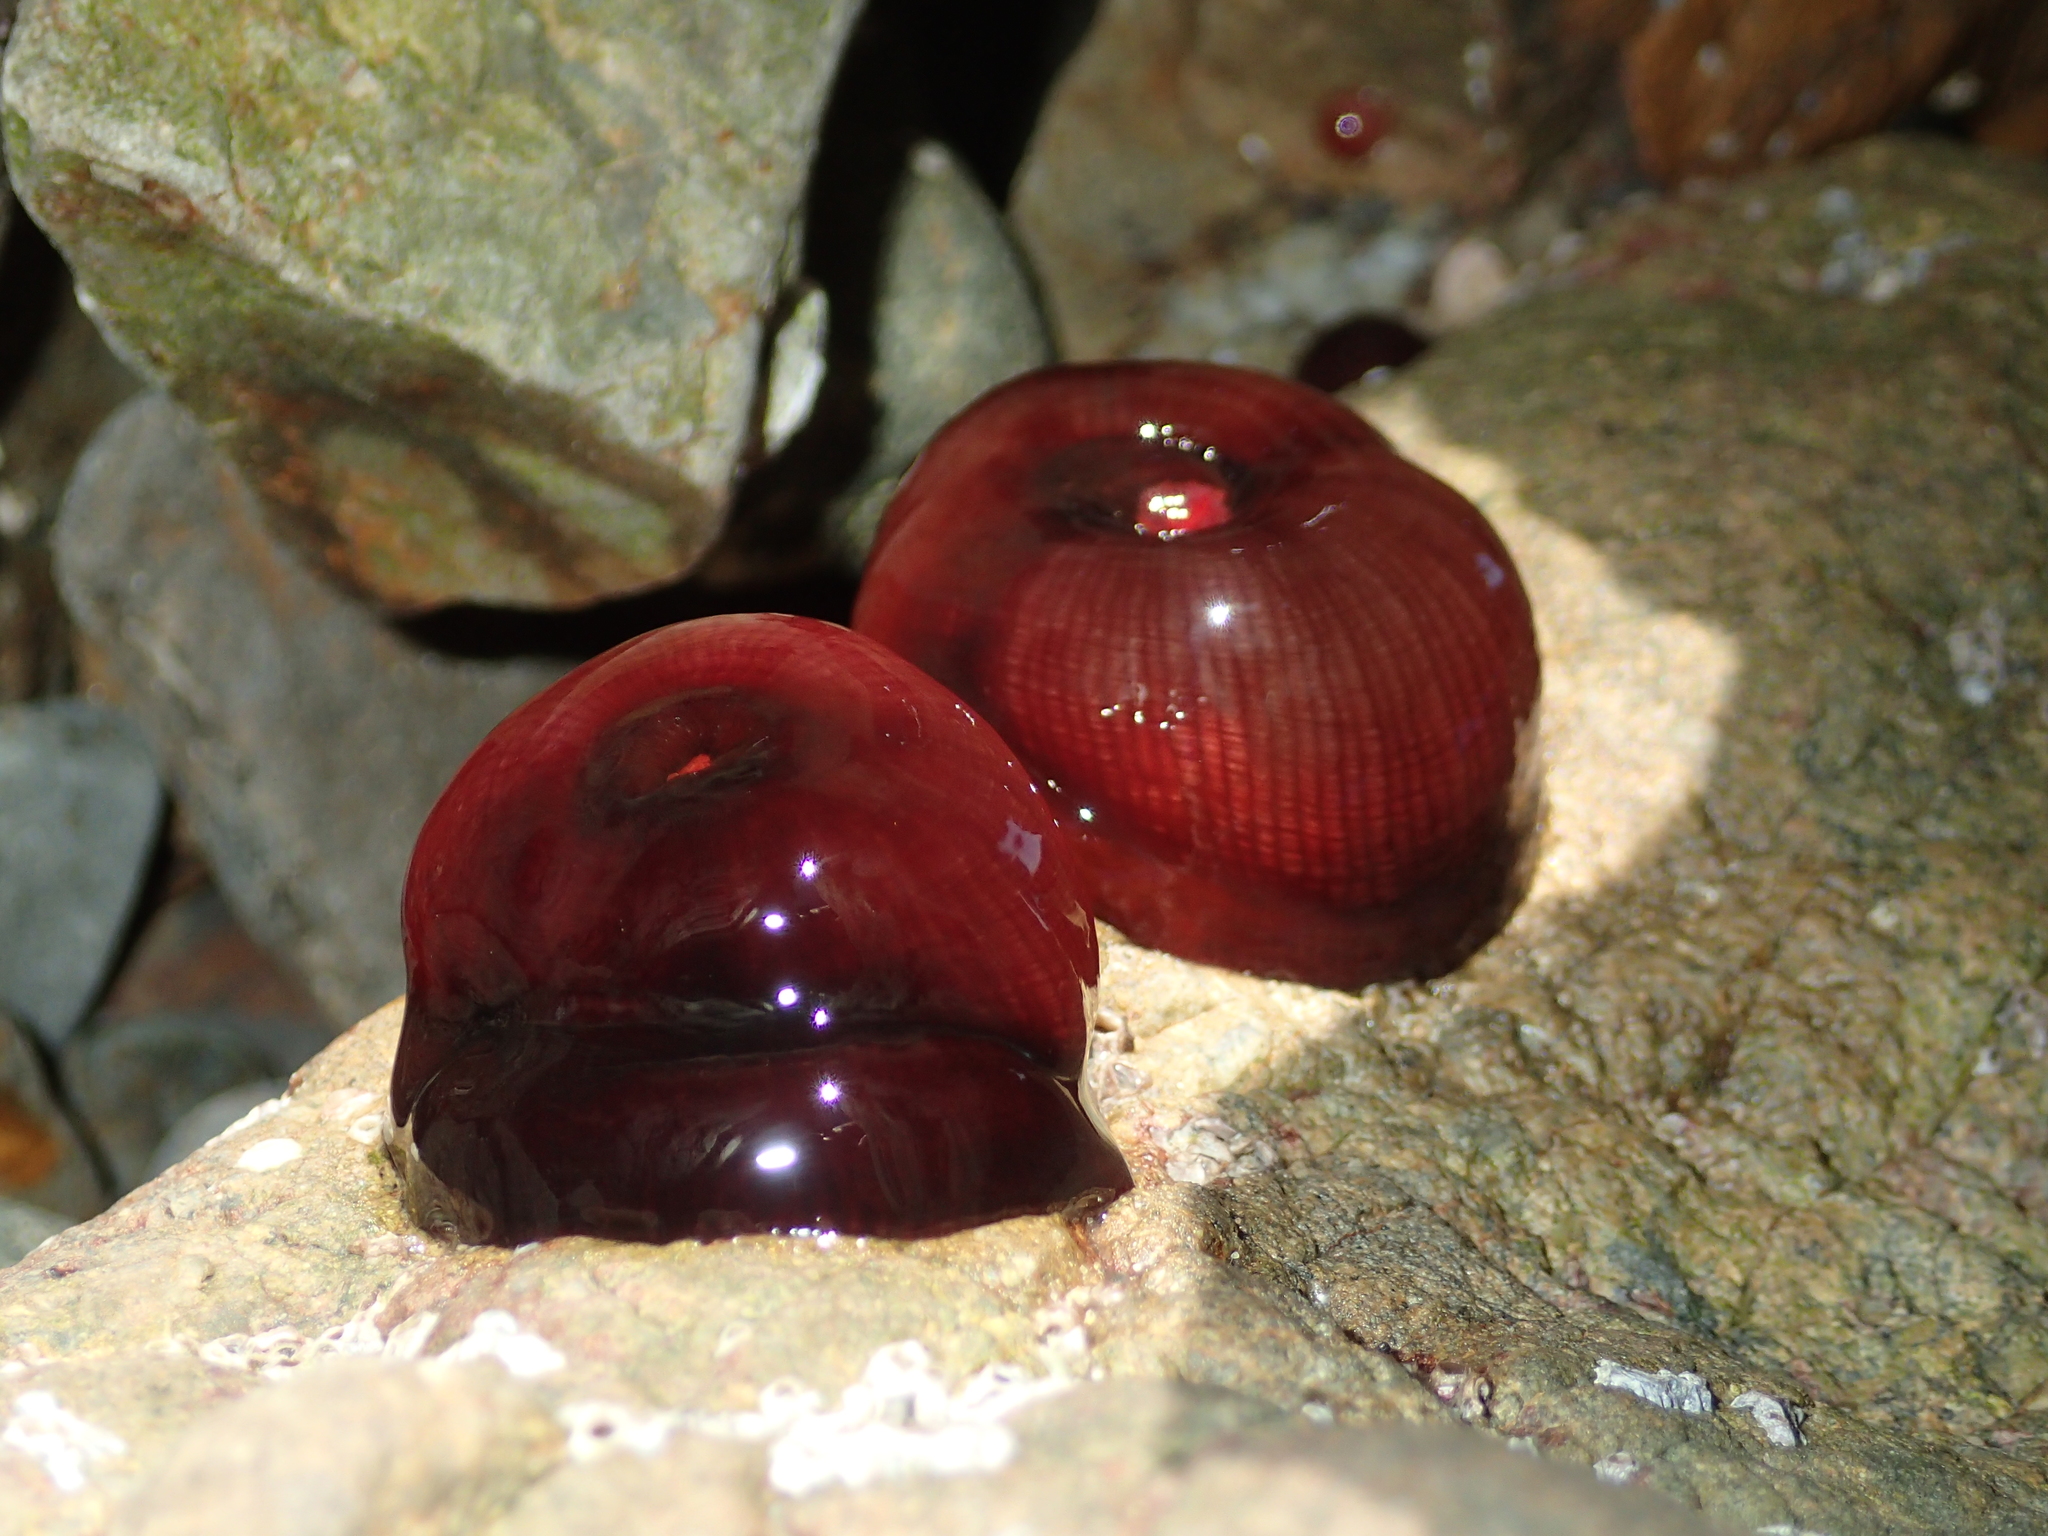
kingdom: Animalia
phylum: Cnidaria
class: Anthozoa
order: Actiniaria
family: Actiniidae
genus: Actinia
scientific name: Actinia tenebrosa
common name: Waratah anemone
